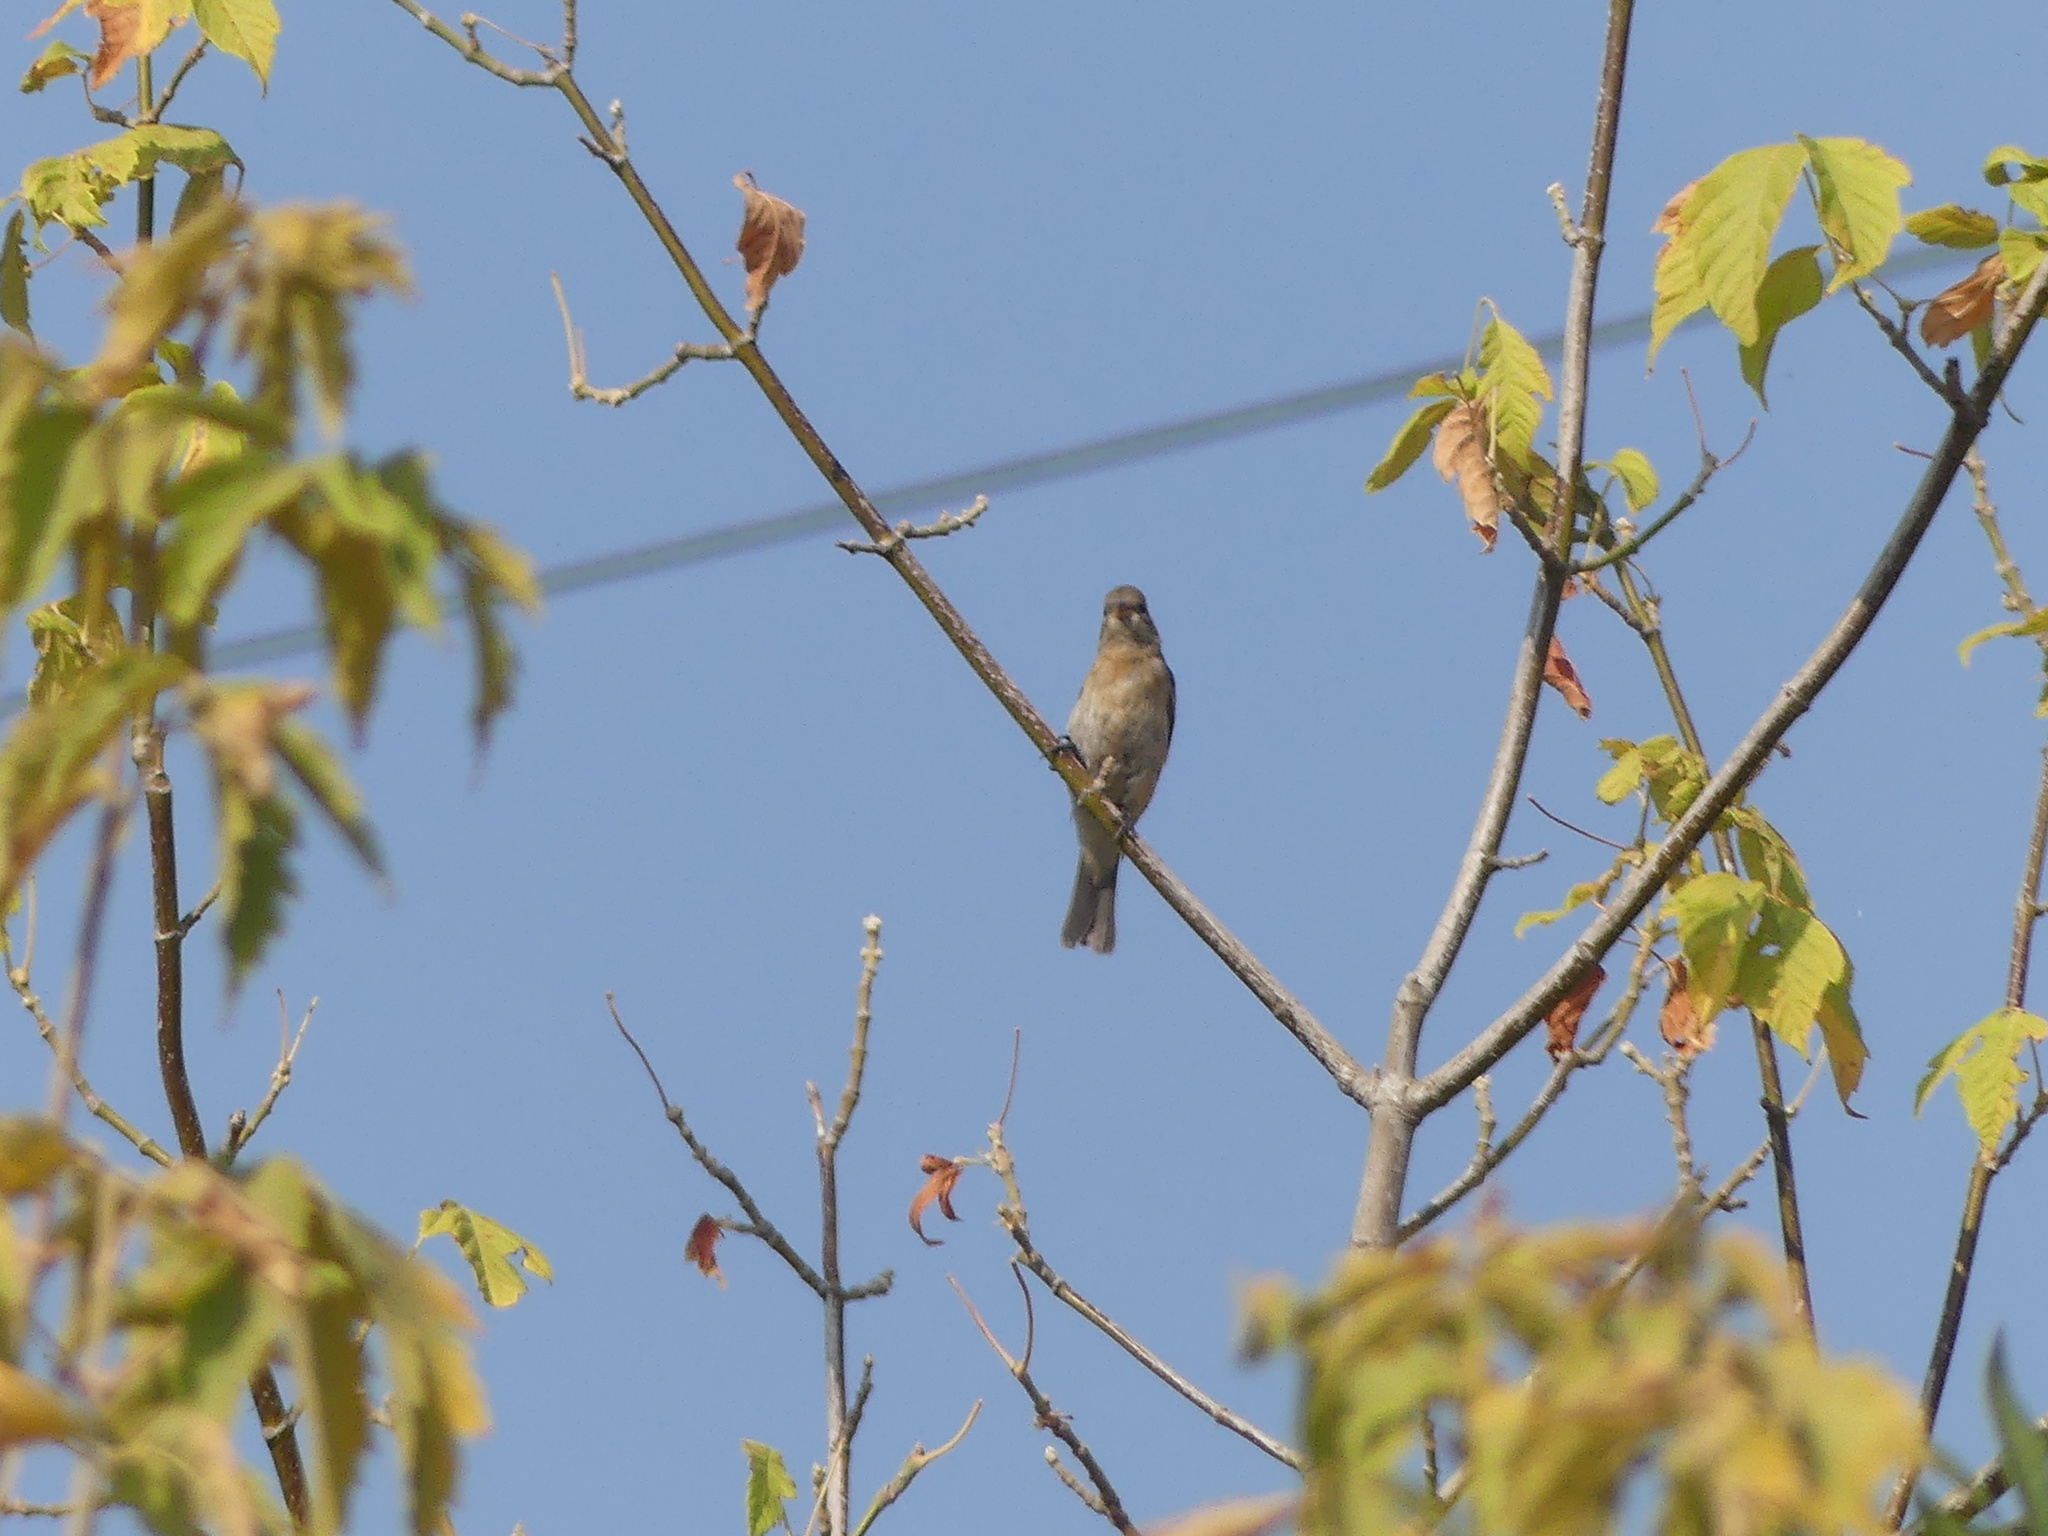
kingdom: Animalia
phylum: Chordata
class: Aves
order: Passeriformes
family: Cardinalidae
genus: Passerina
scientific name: Passerina amoena
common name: Lazuli bunting
